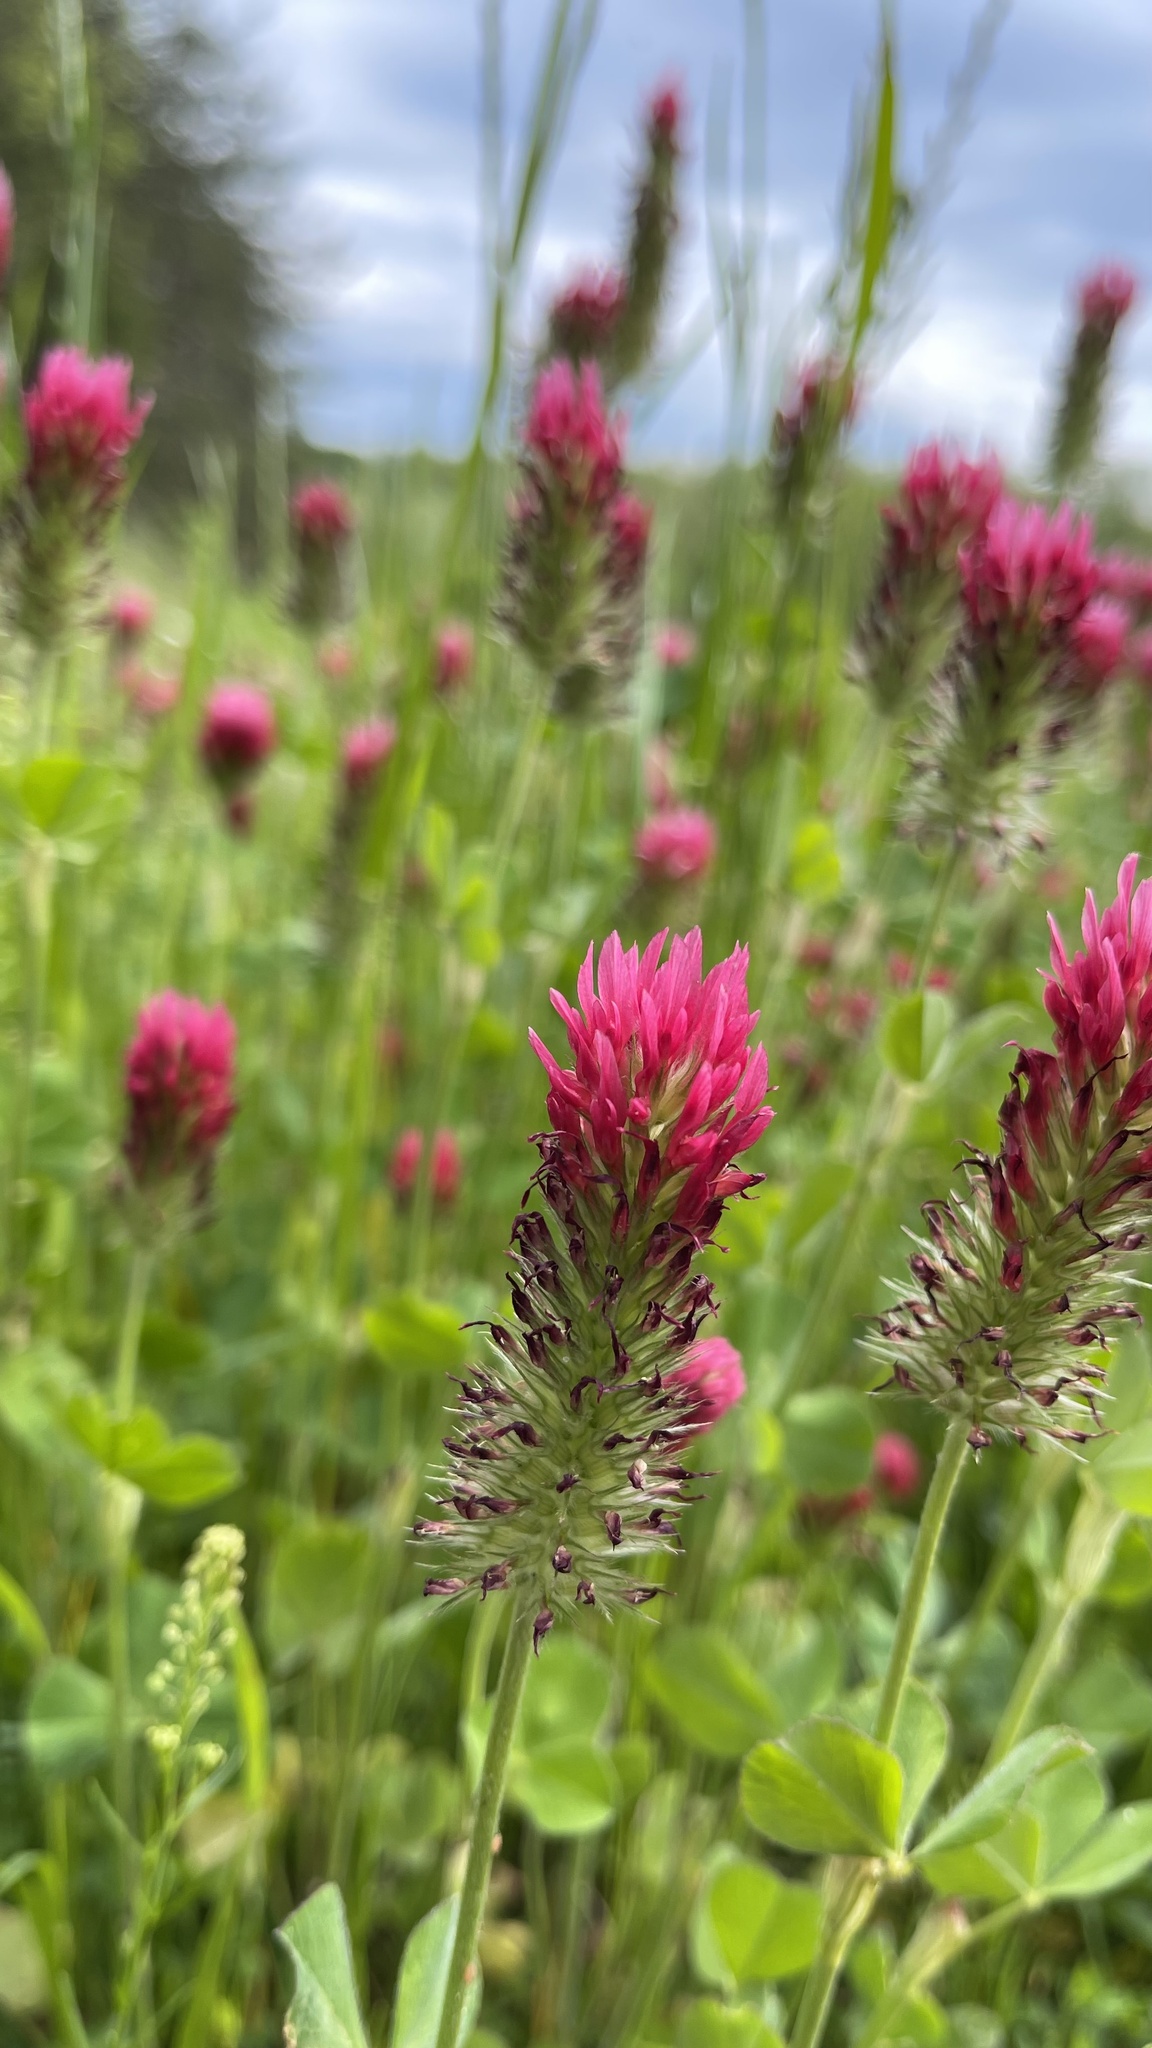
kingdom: Plantae
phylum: Tracheophyta
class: Magnoliopsida
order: Fabales
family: Fabaceae
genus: Trifolium
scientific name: Trifolium incarnatum
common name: Crimson clover
